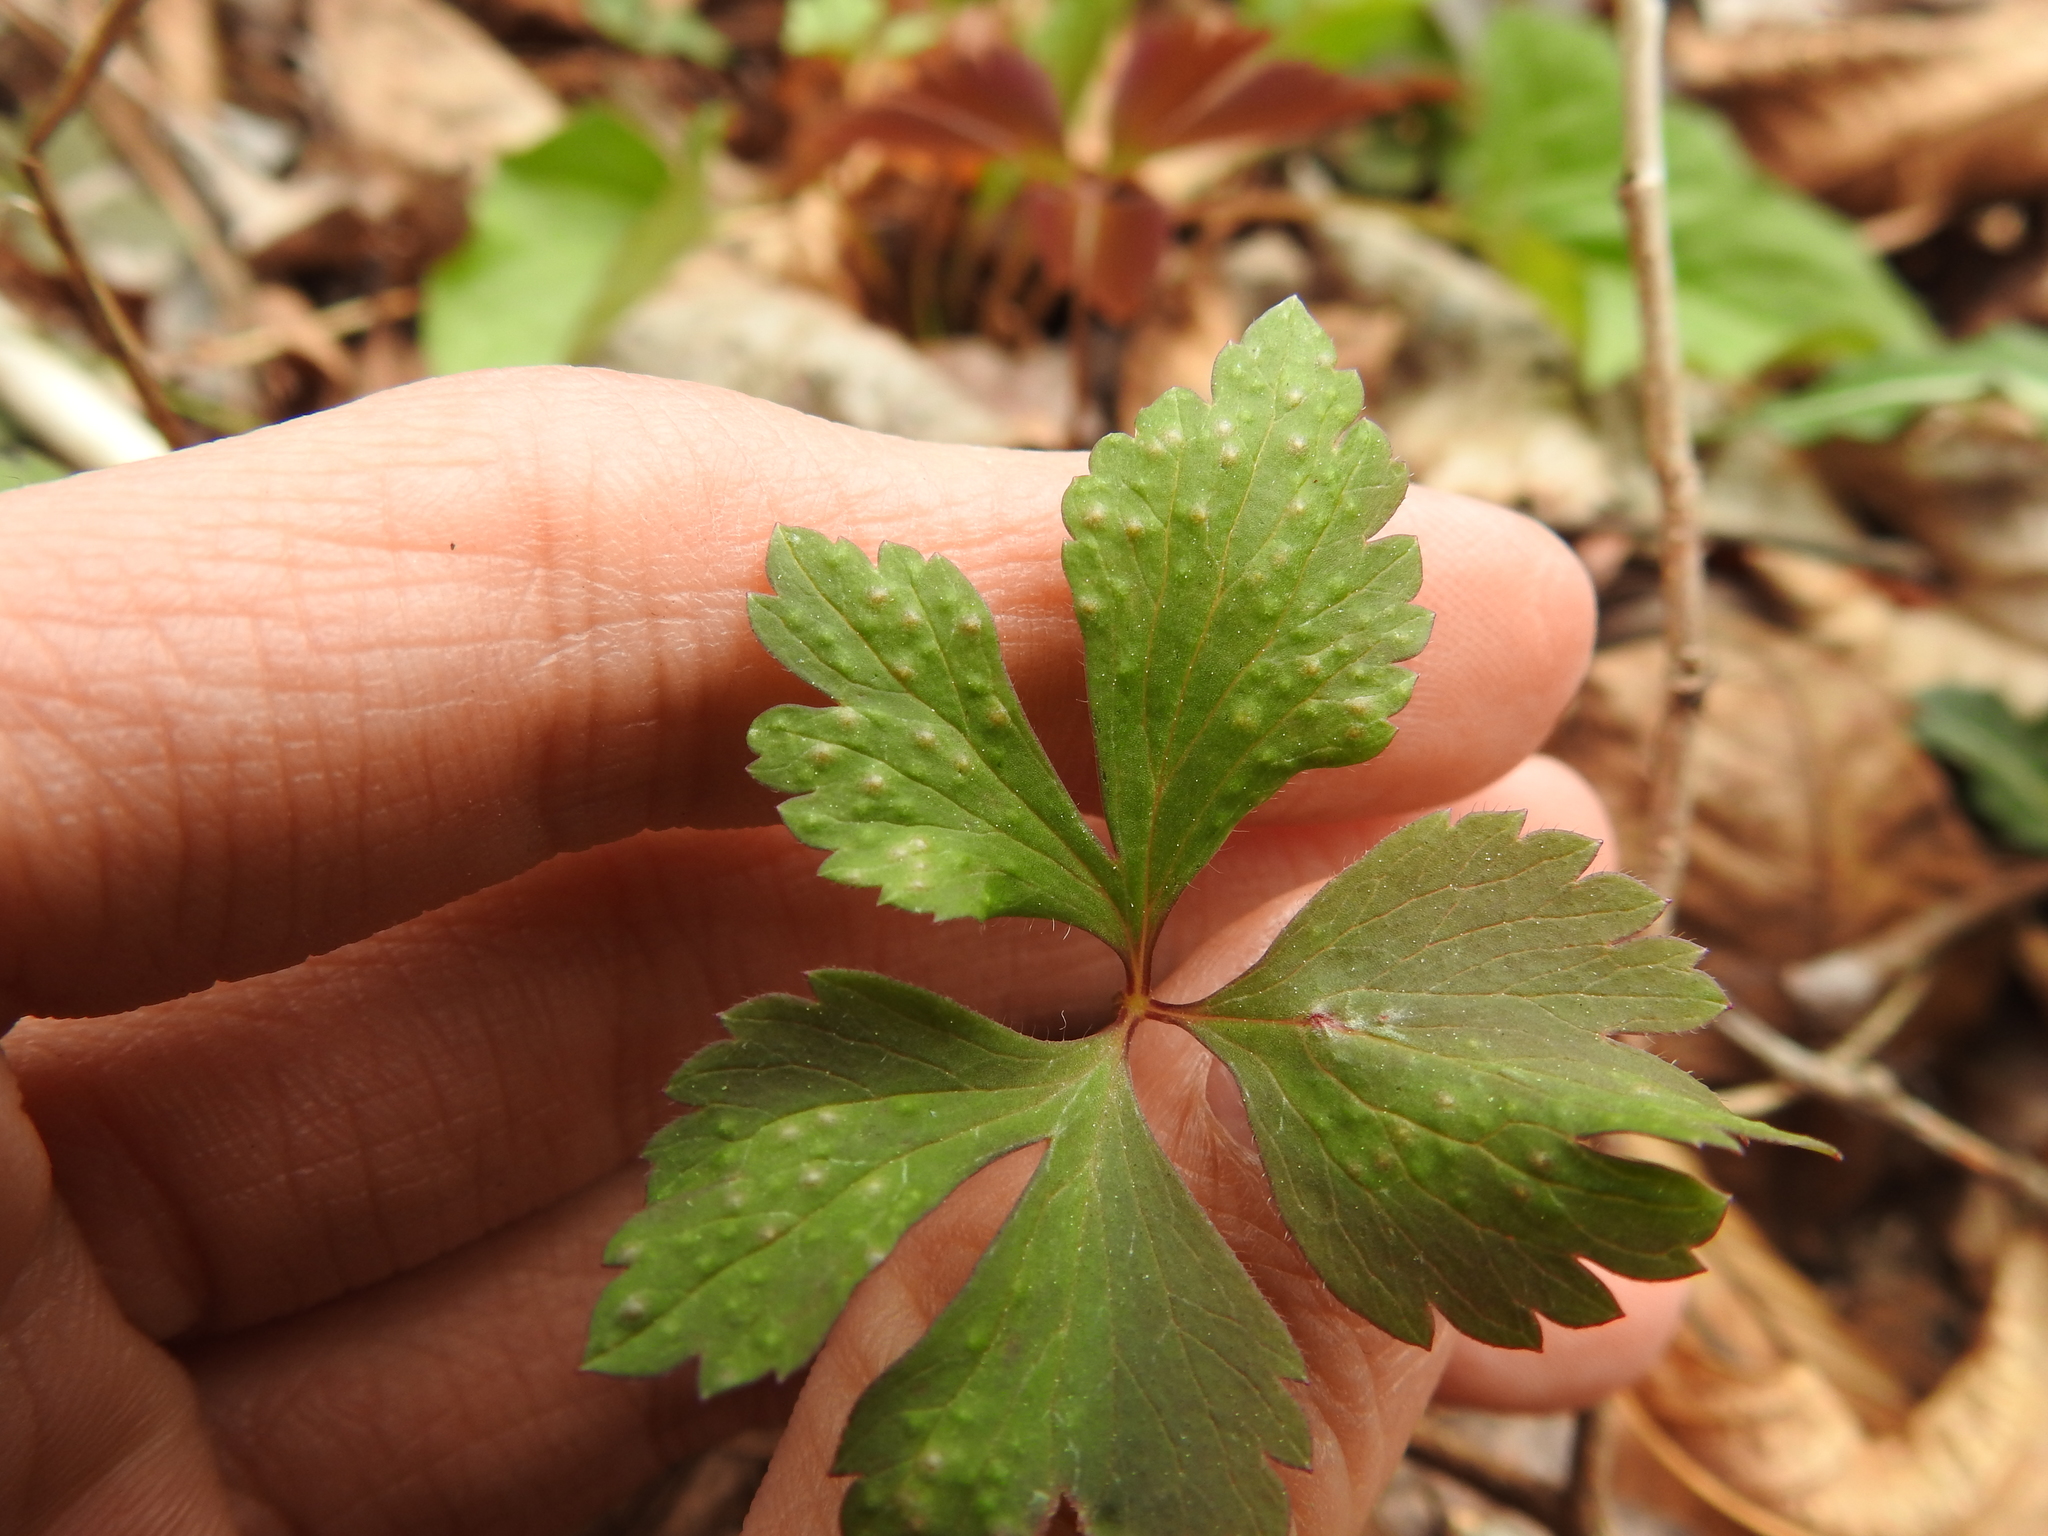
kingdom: Plantae
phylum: Tracheophyta
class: Magnoliopsida
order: Ranunculales
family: Ranunculaceae
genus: Anemone
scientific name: Anemone quinquefolia
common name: Wood anemone
